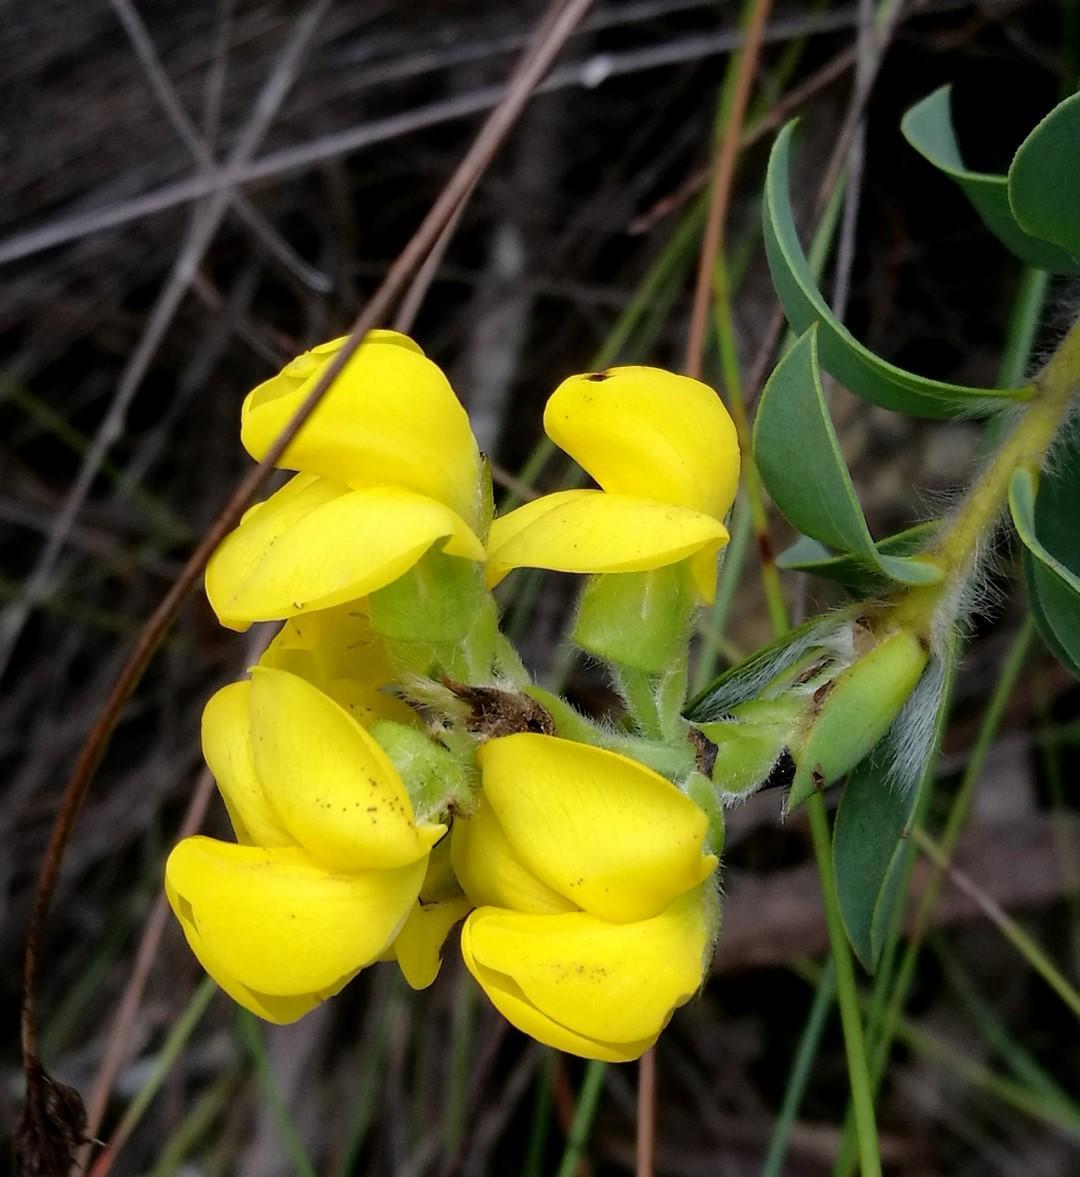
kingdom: Plantae
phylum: Tracheophyta
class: Magnoliopsida
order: Fabales
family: Fabaceae
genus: Liparia
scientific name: Liparia hirsuta
